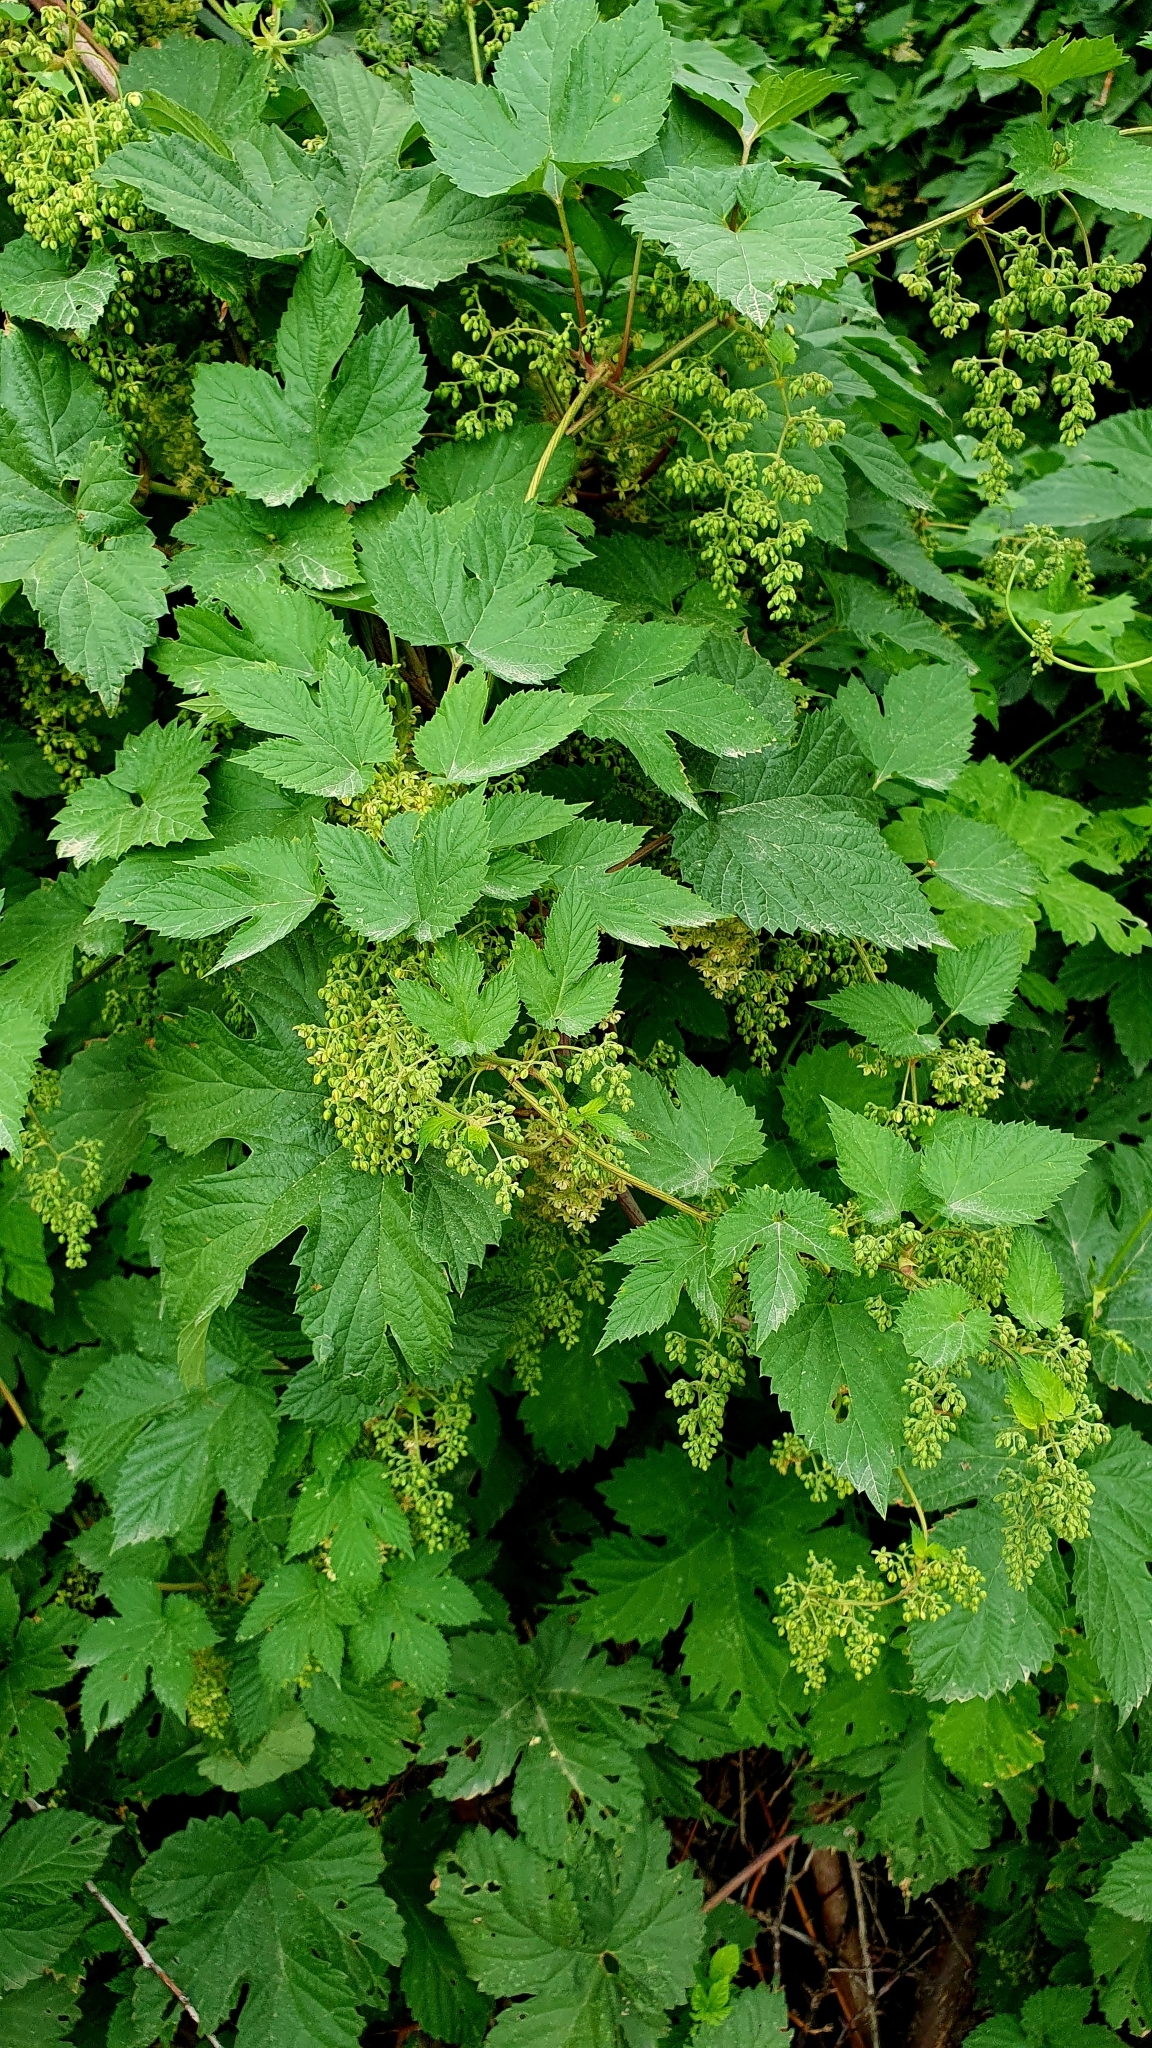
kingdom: Plantae
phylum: Tracheophyta
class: Magnoliopsida
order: Rosales
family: Cannabaceae
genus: Humulus
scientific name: Humulus lupulus
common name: Hop
